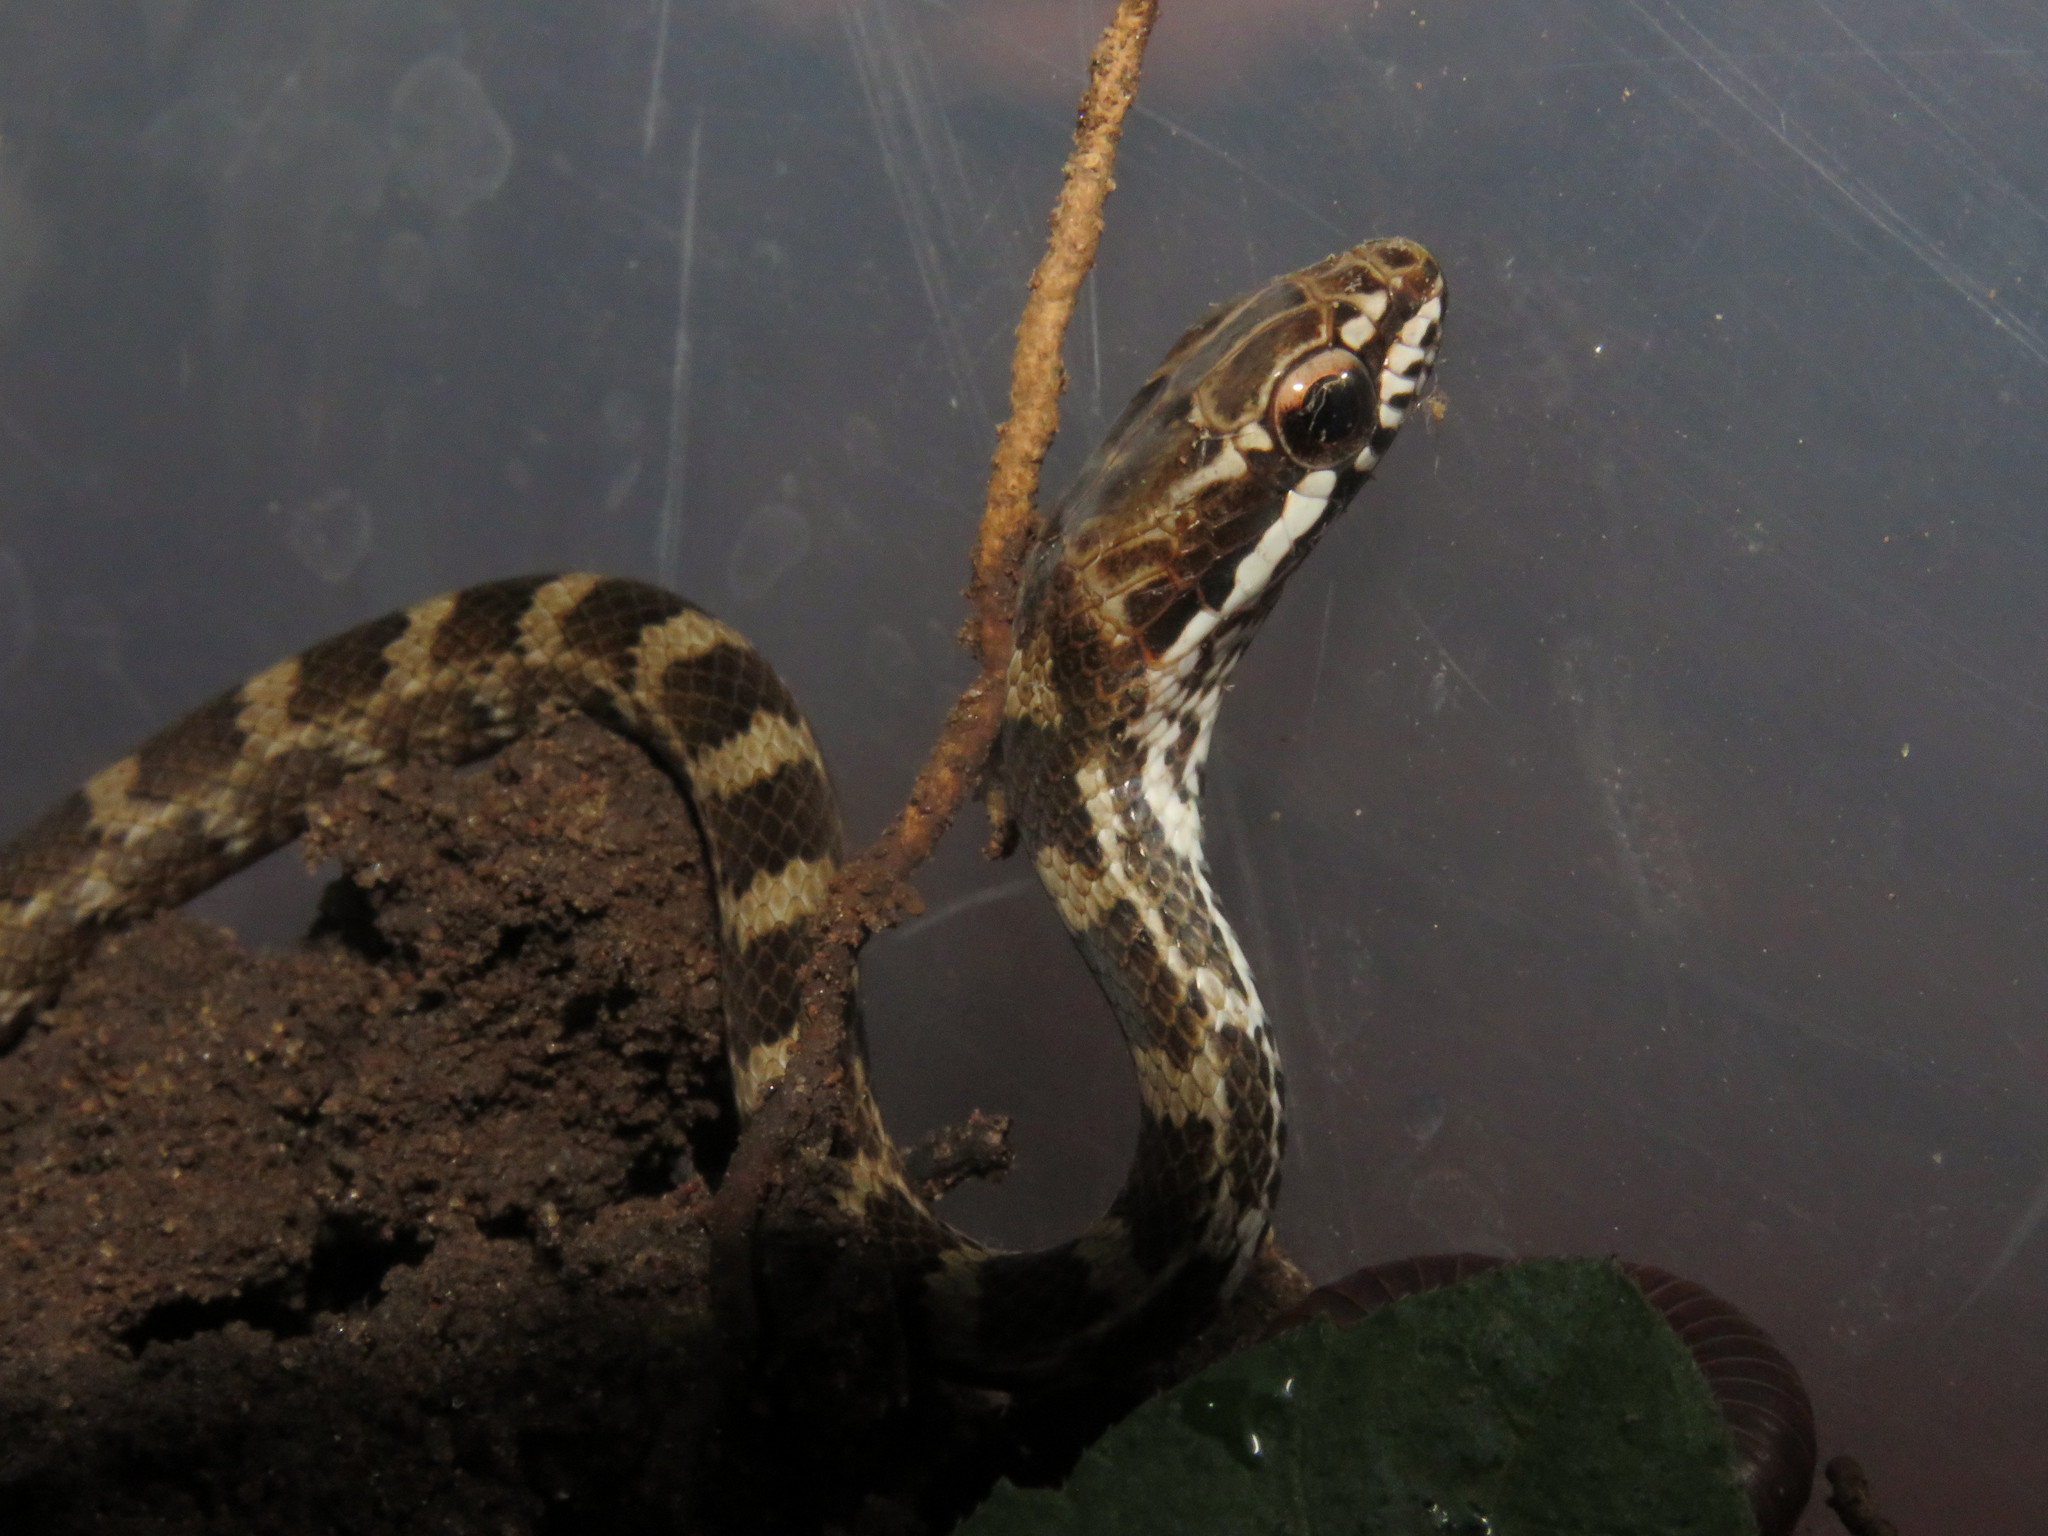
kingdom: Animalia
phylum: Chordata
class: Squamata
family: Colubridae
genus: Mastigodryas
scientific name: Mastigodryas boddaerti
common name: Boddaert's tropical racer
